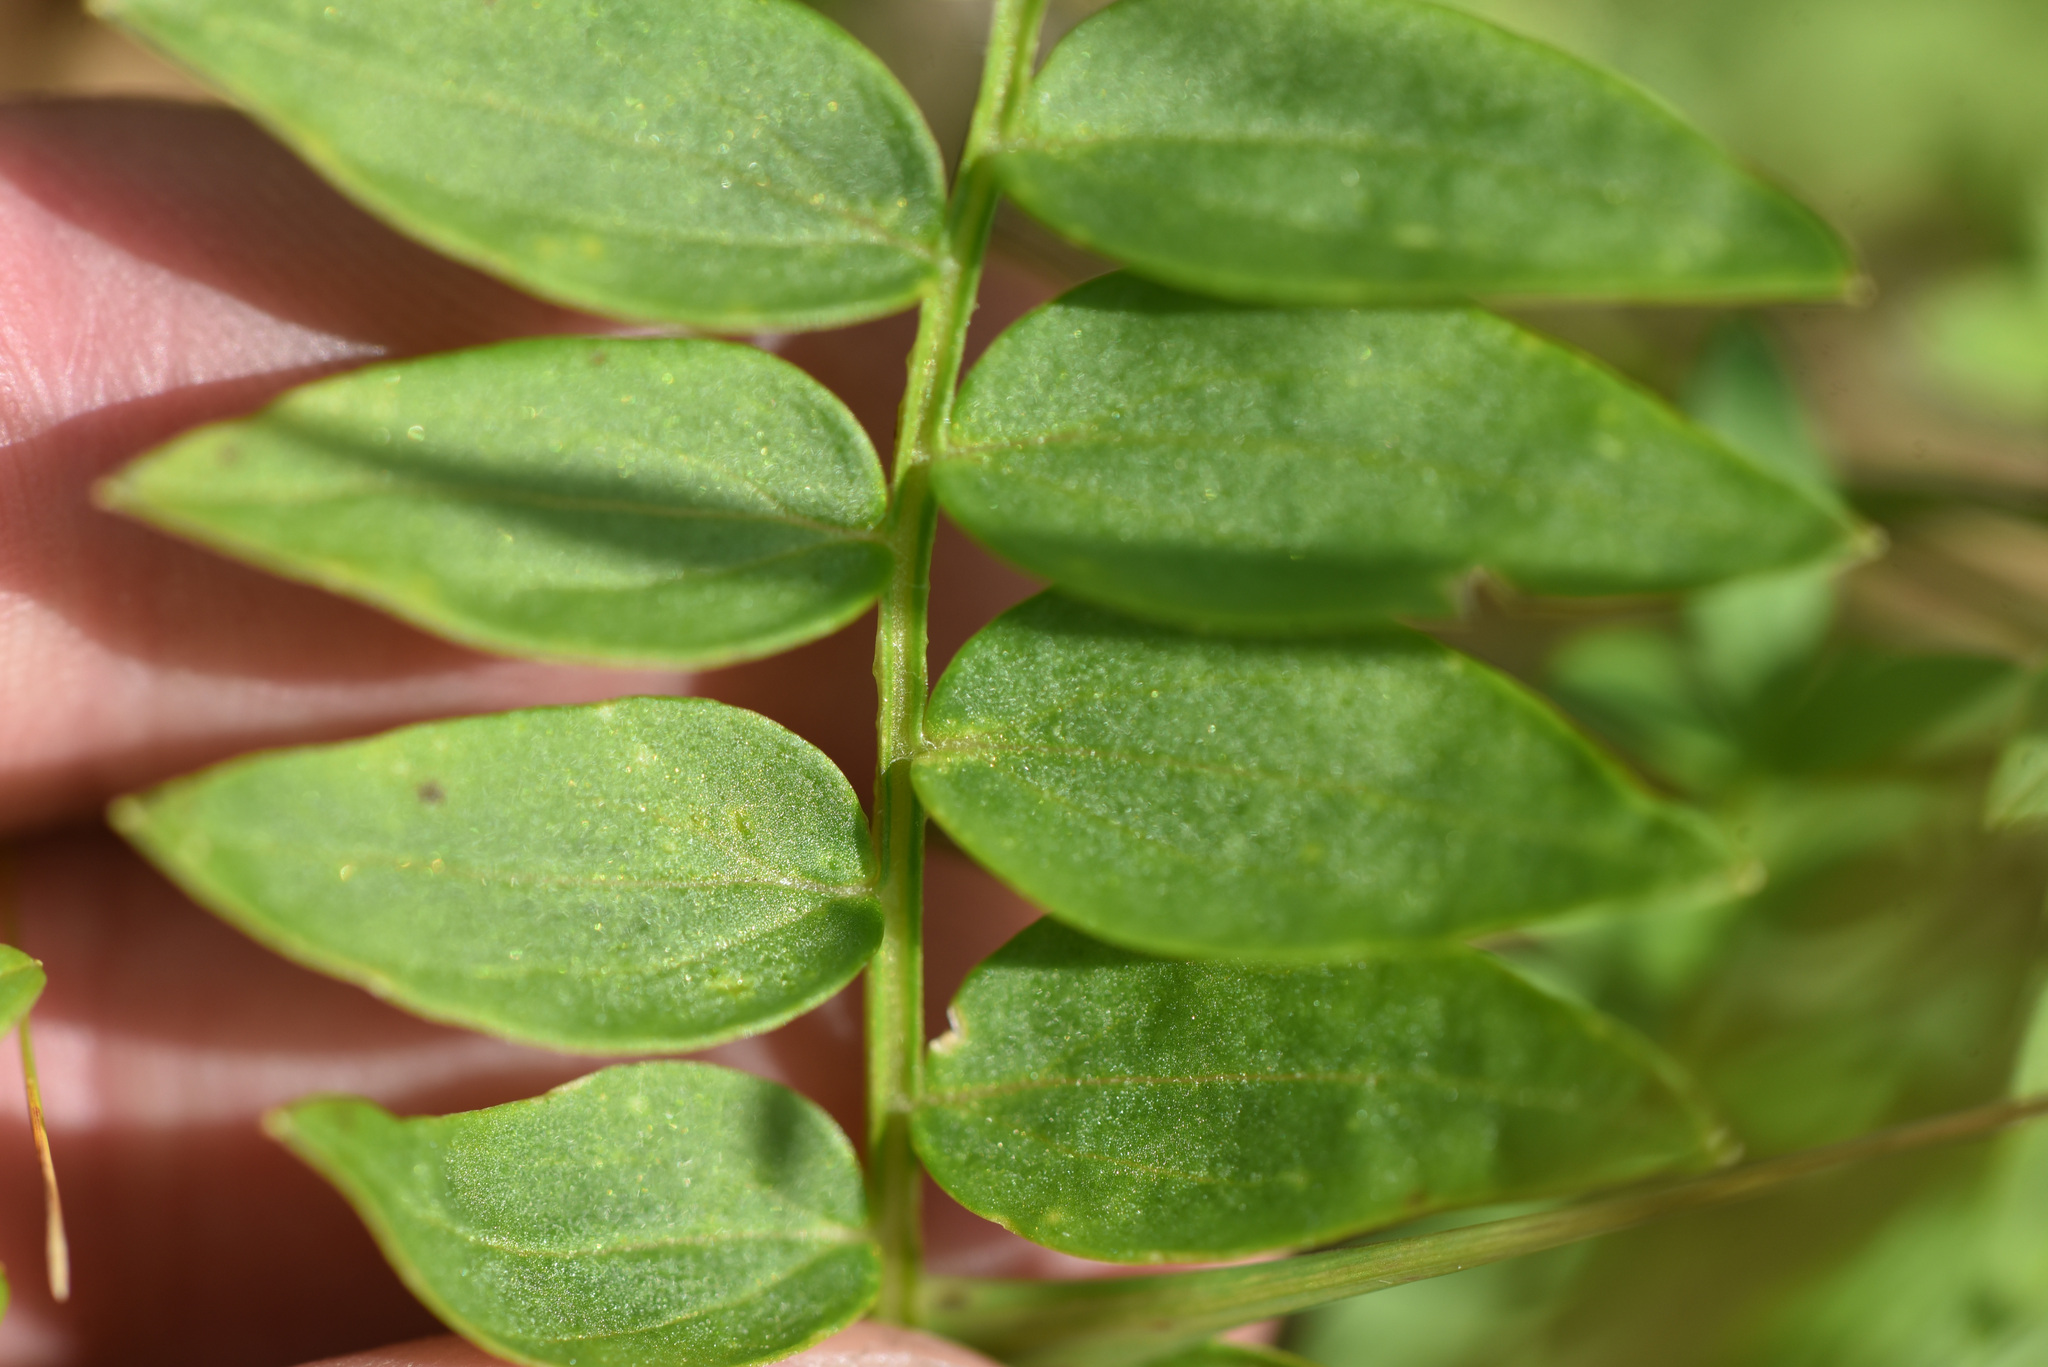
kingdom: Plantae
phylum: Tracheophyta
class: Magnoliopsida
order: Ericales
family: Polemoniaceae
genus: Polemonium
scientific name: Polemonium acutiflorum
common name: Tall jacob's-ladder
